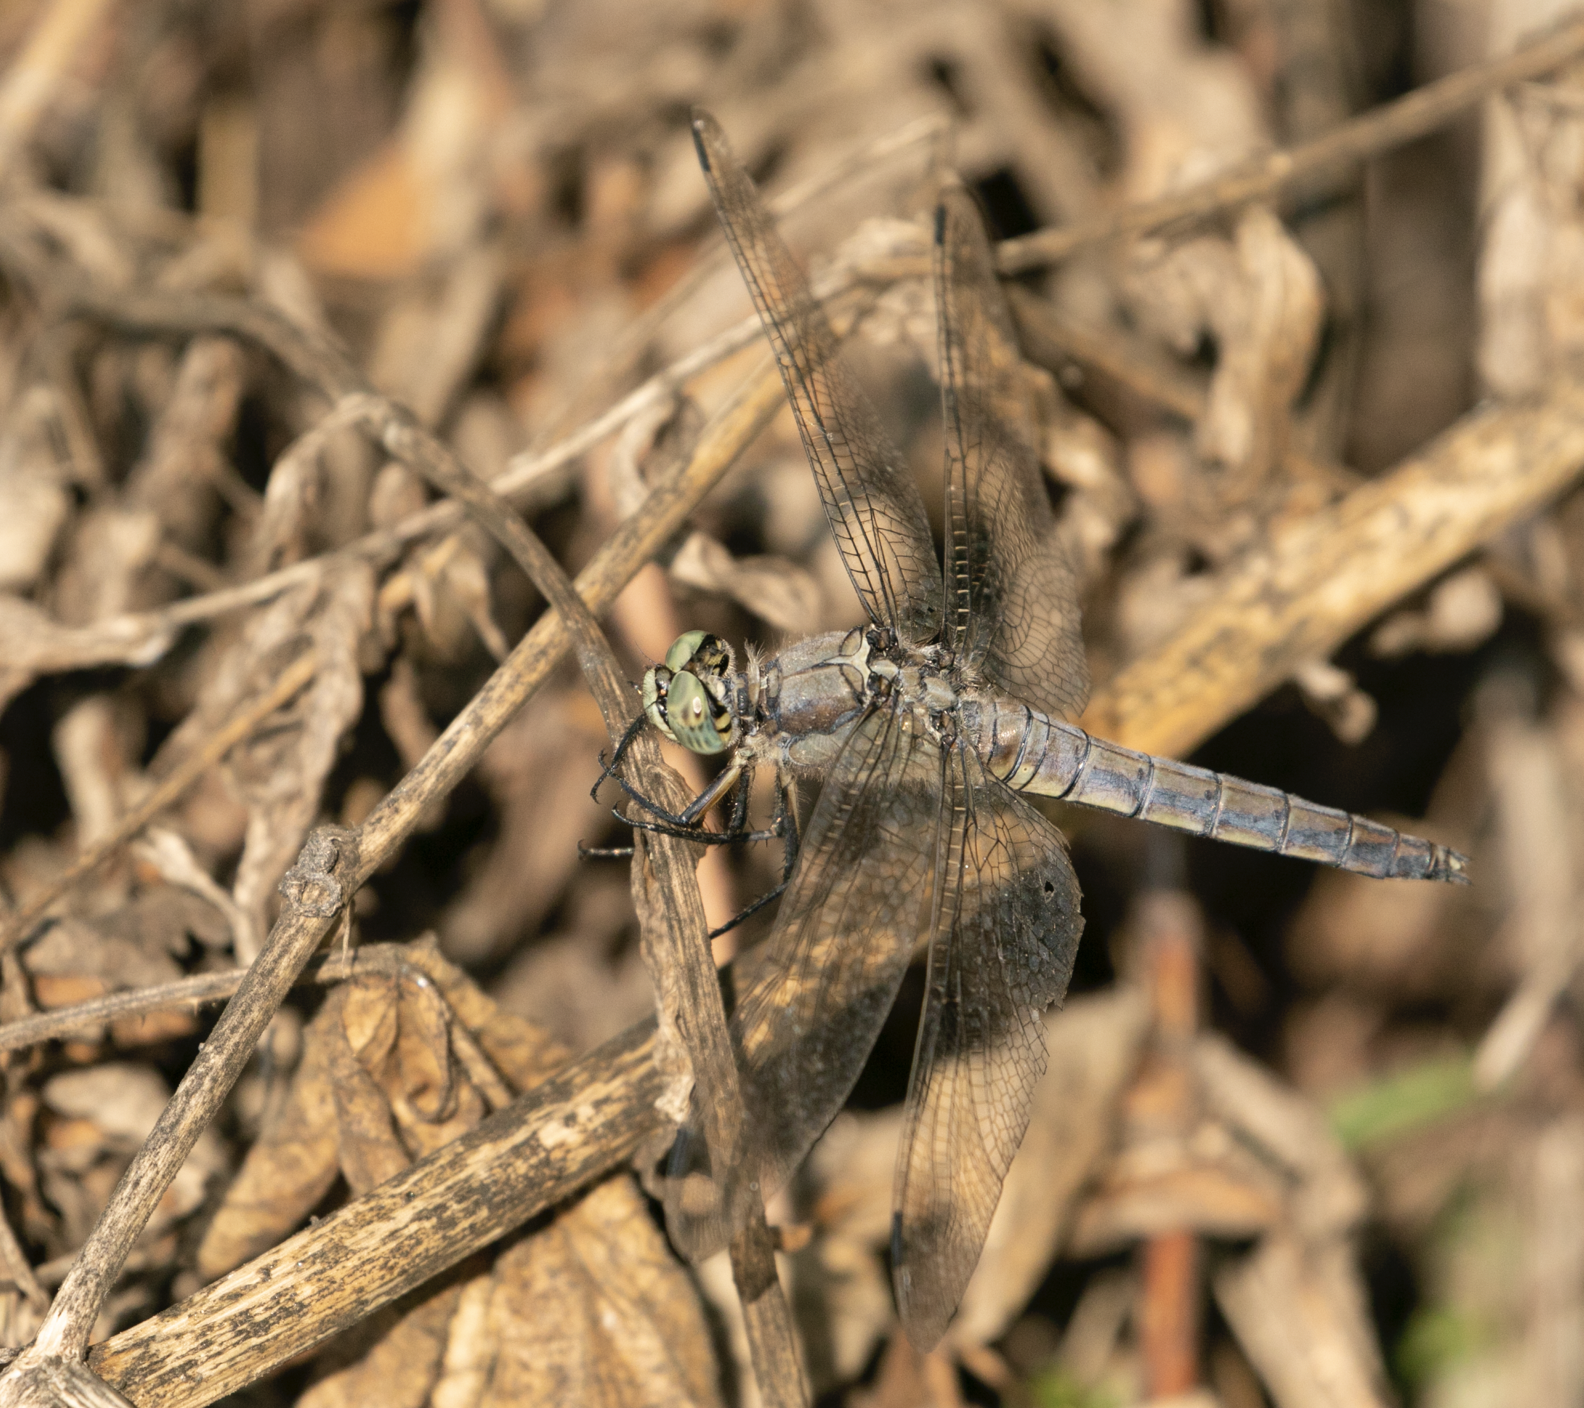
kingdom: Animalia
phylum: Arthropoda
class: Insecta
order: Odonata
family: Libellulidae
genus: Orthetrum
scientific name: Orthetrum cancellatum
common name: Black-tailed skimmer
